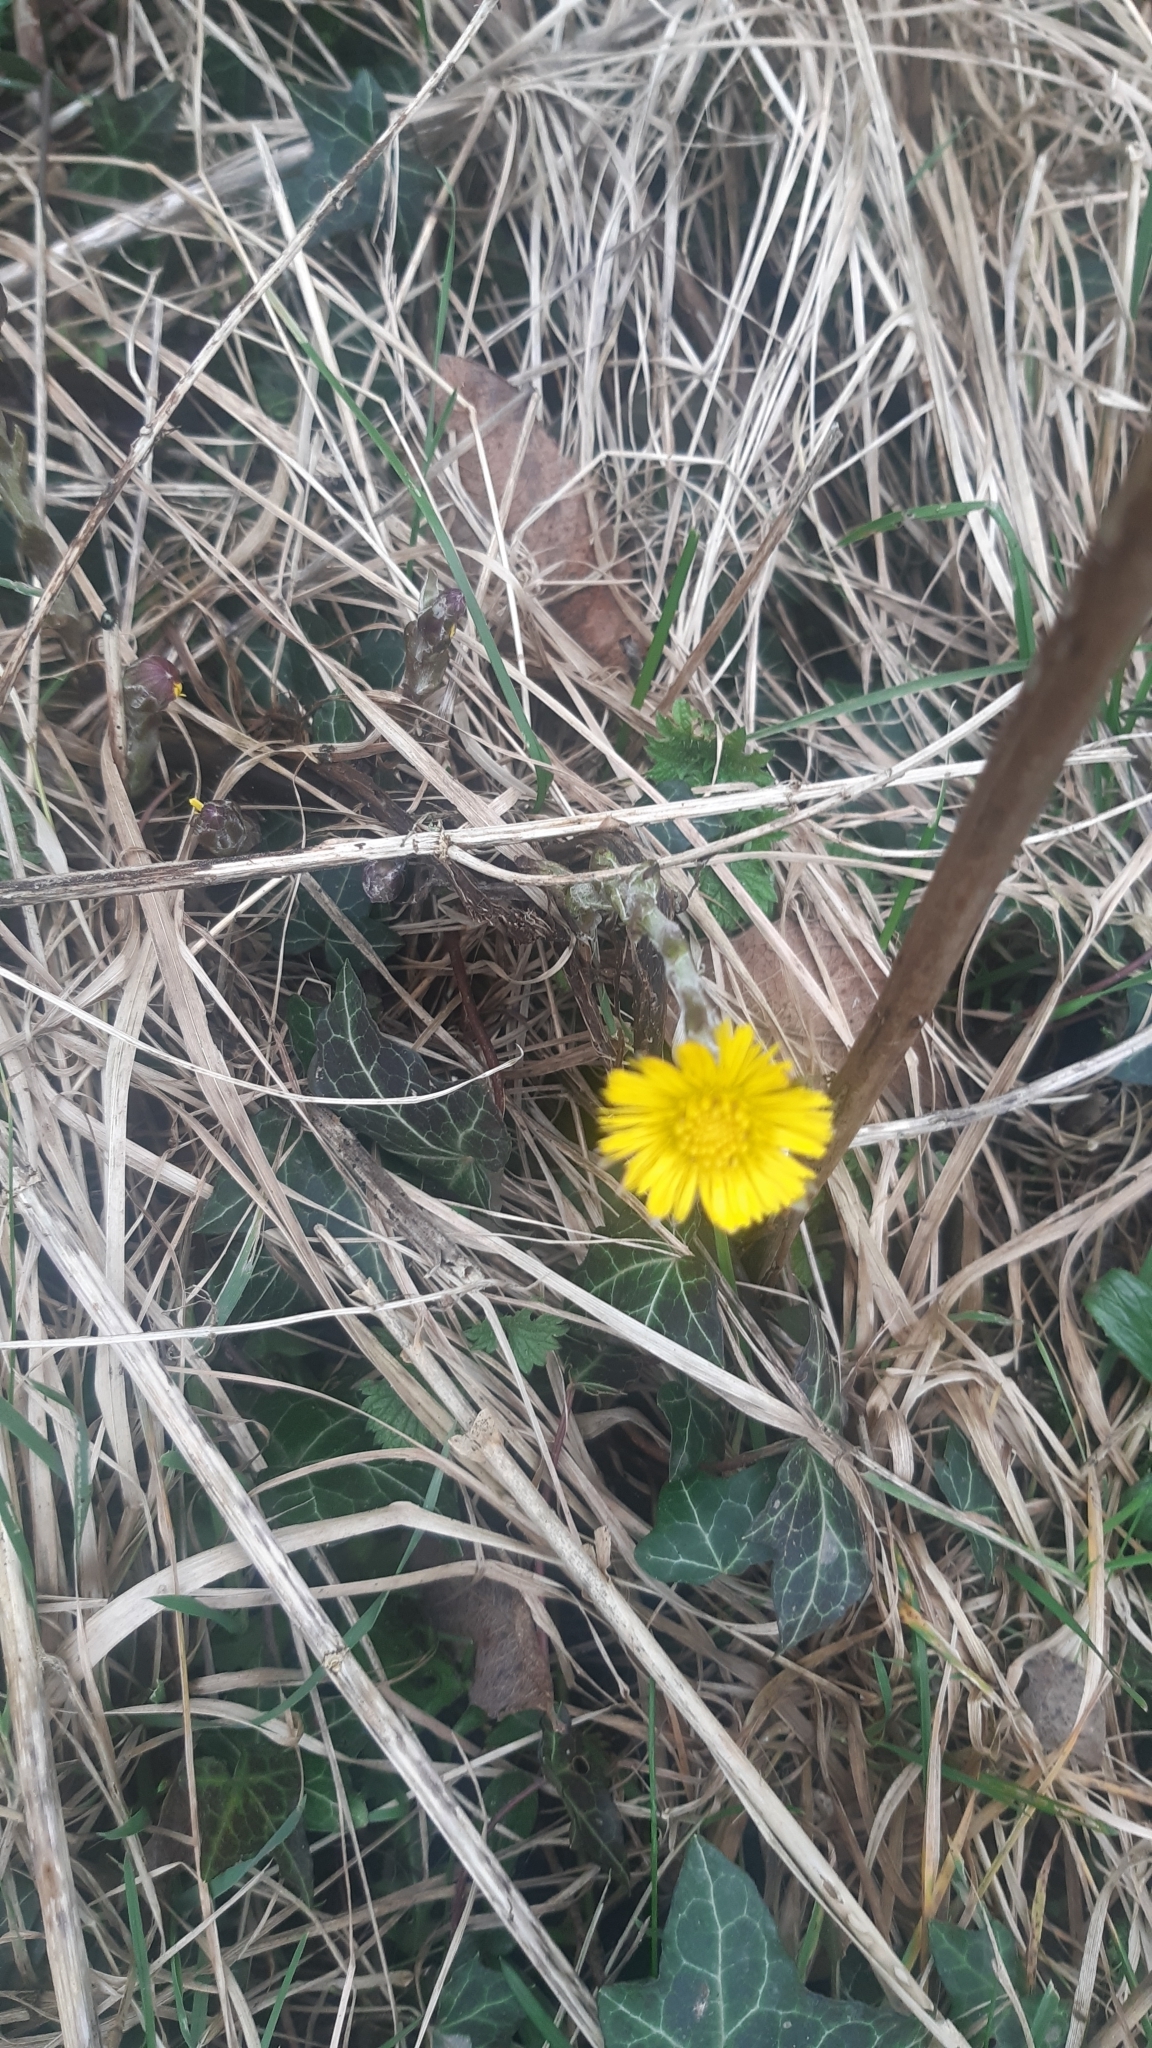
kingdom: Plantae
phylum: Tracheophyta
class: Magnoliopsida
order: Asterales
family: Asteraceae
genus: Tussilago
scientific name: Tussilago farfara
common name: Coltsfoot
